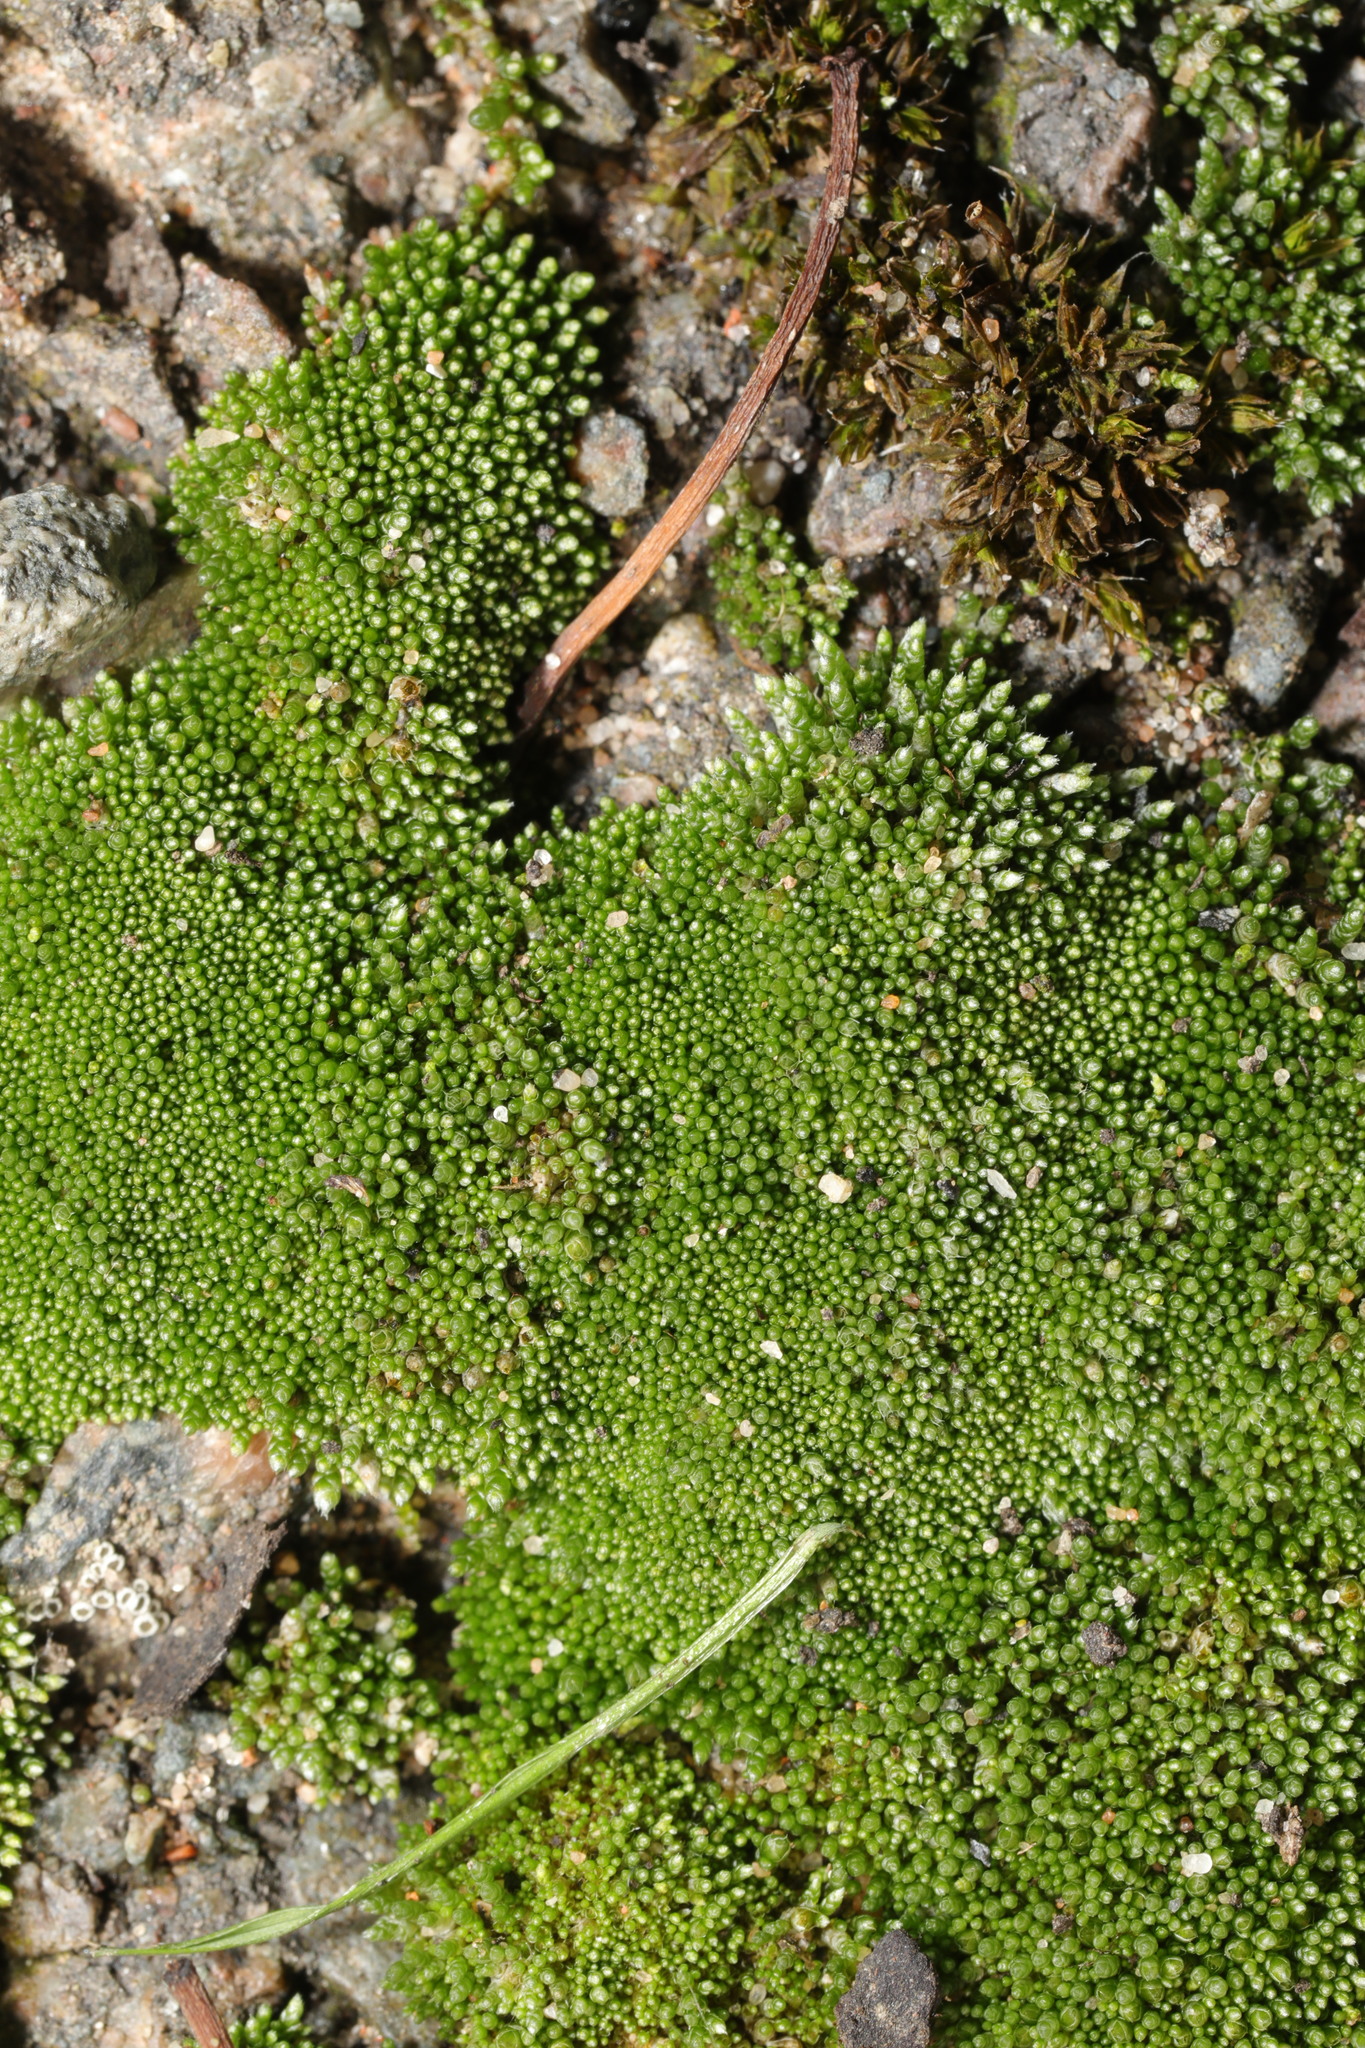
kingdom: Plantae
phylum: Bryophyta
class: Bryopsida
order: Bryales
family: Bryaceae
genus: Bryum
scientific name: Bryum argenteum
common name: Silver-moss
